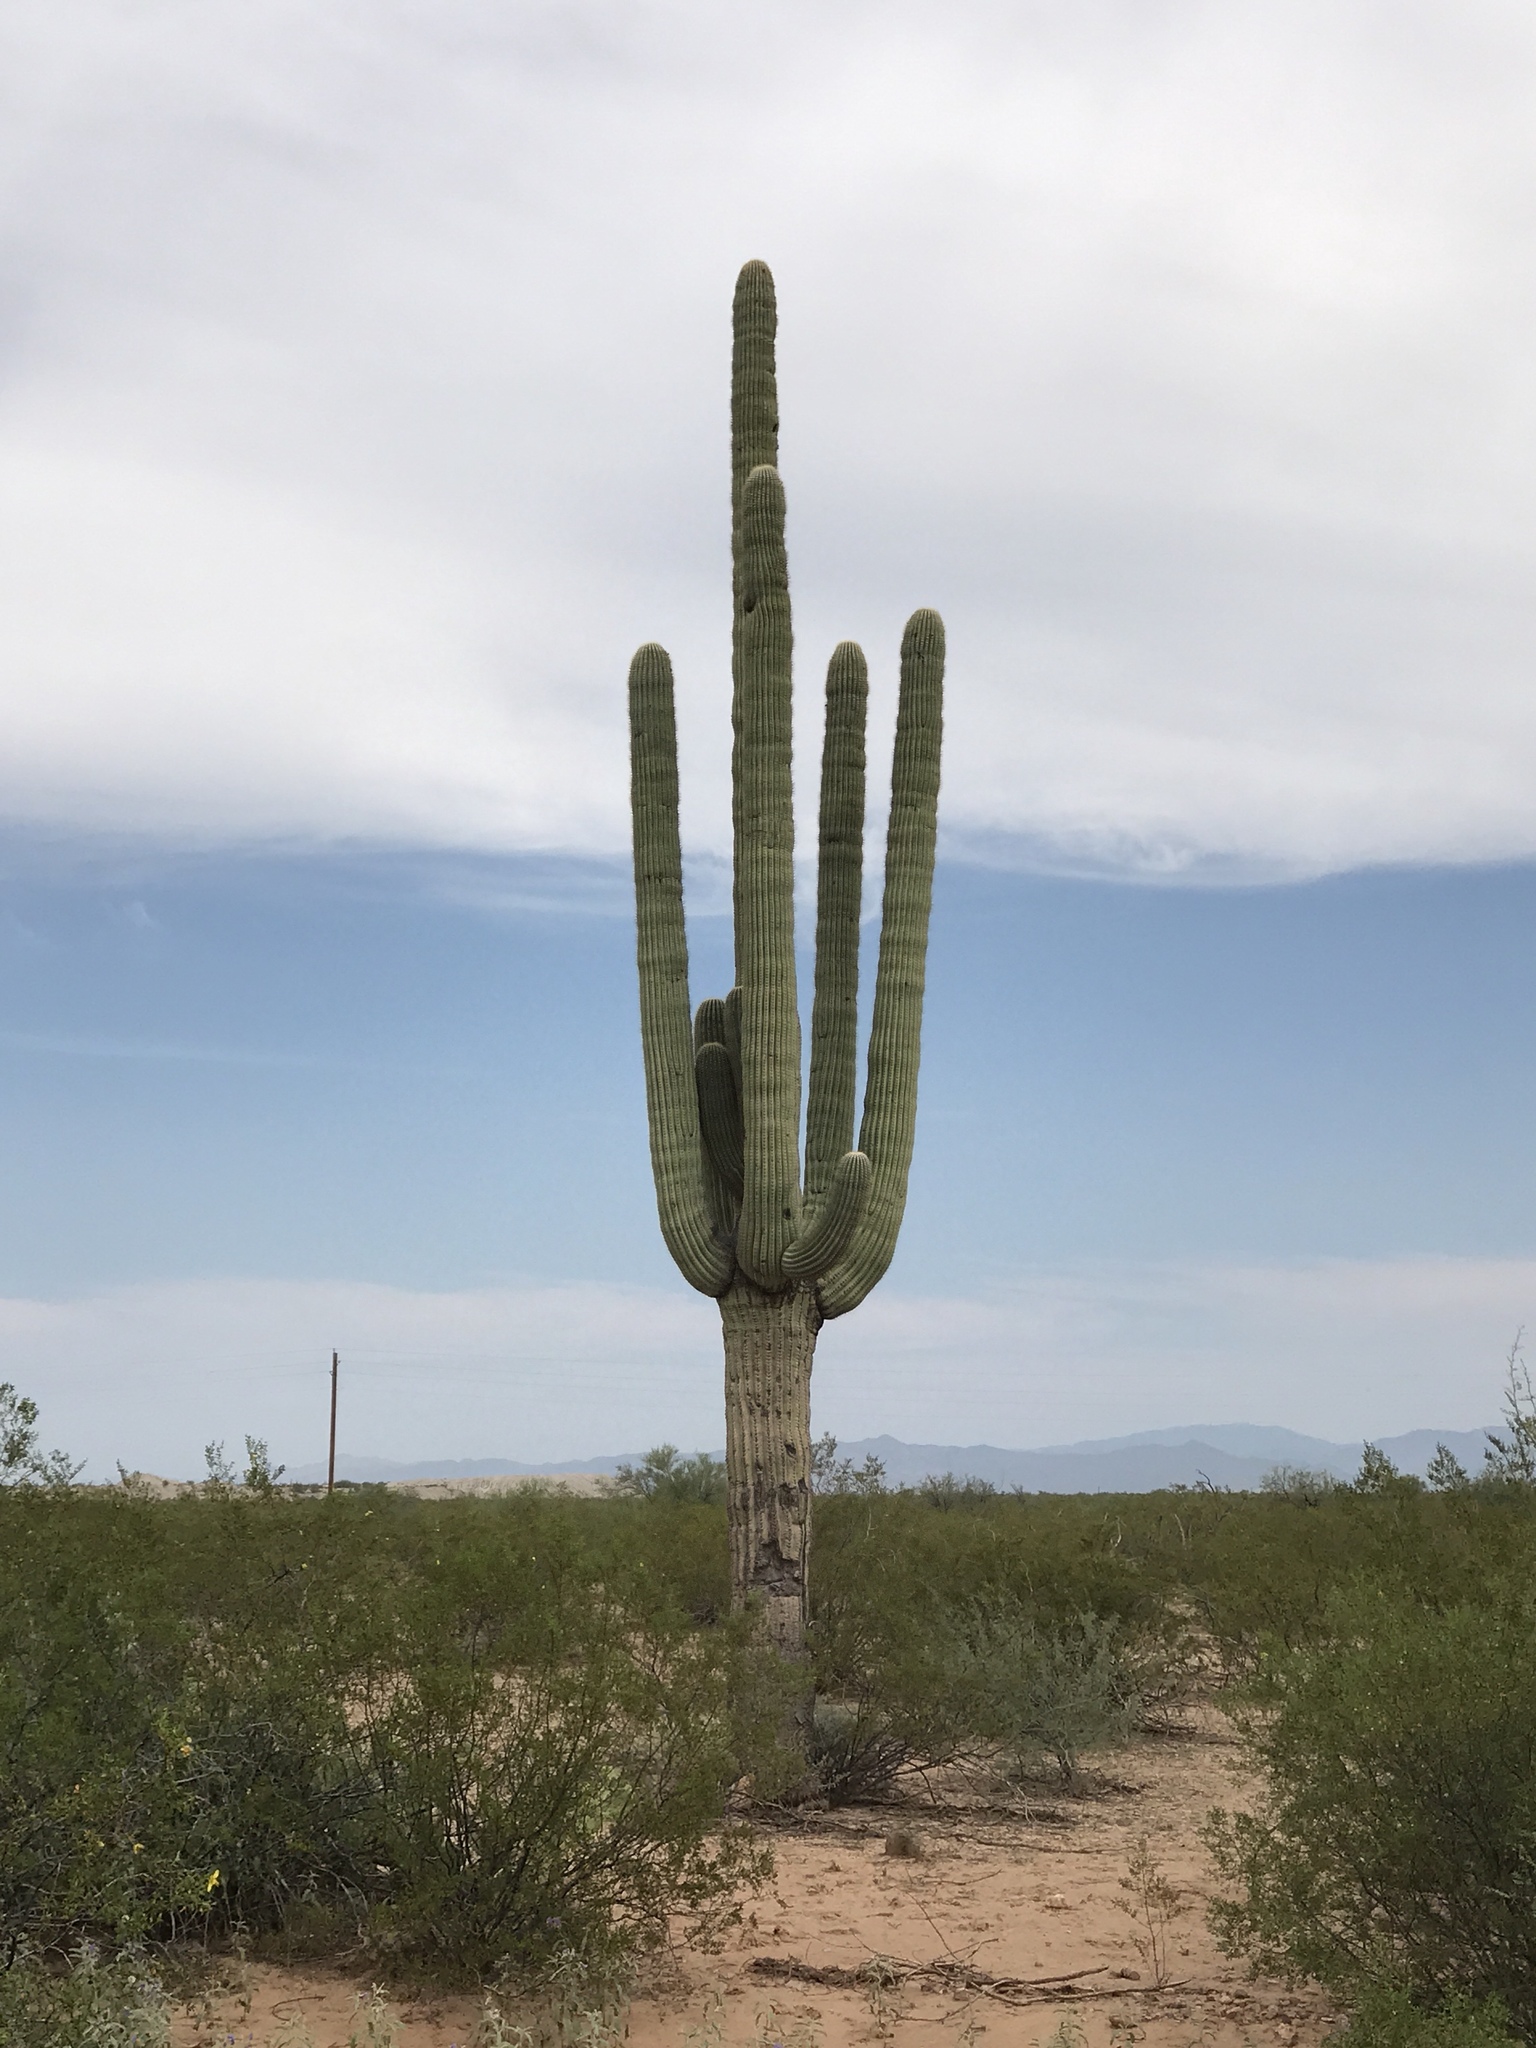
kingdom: Plantae
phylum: Tracheophyta
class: Magnoliopsida
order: Caryophyllales
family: Cactaceae
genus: Carnegiea
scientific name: Carnegiea gigantea
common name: Saguaro
